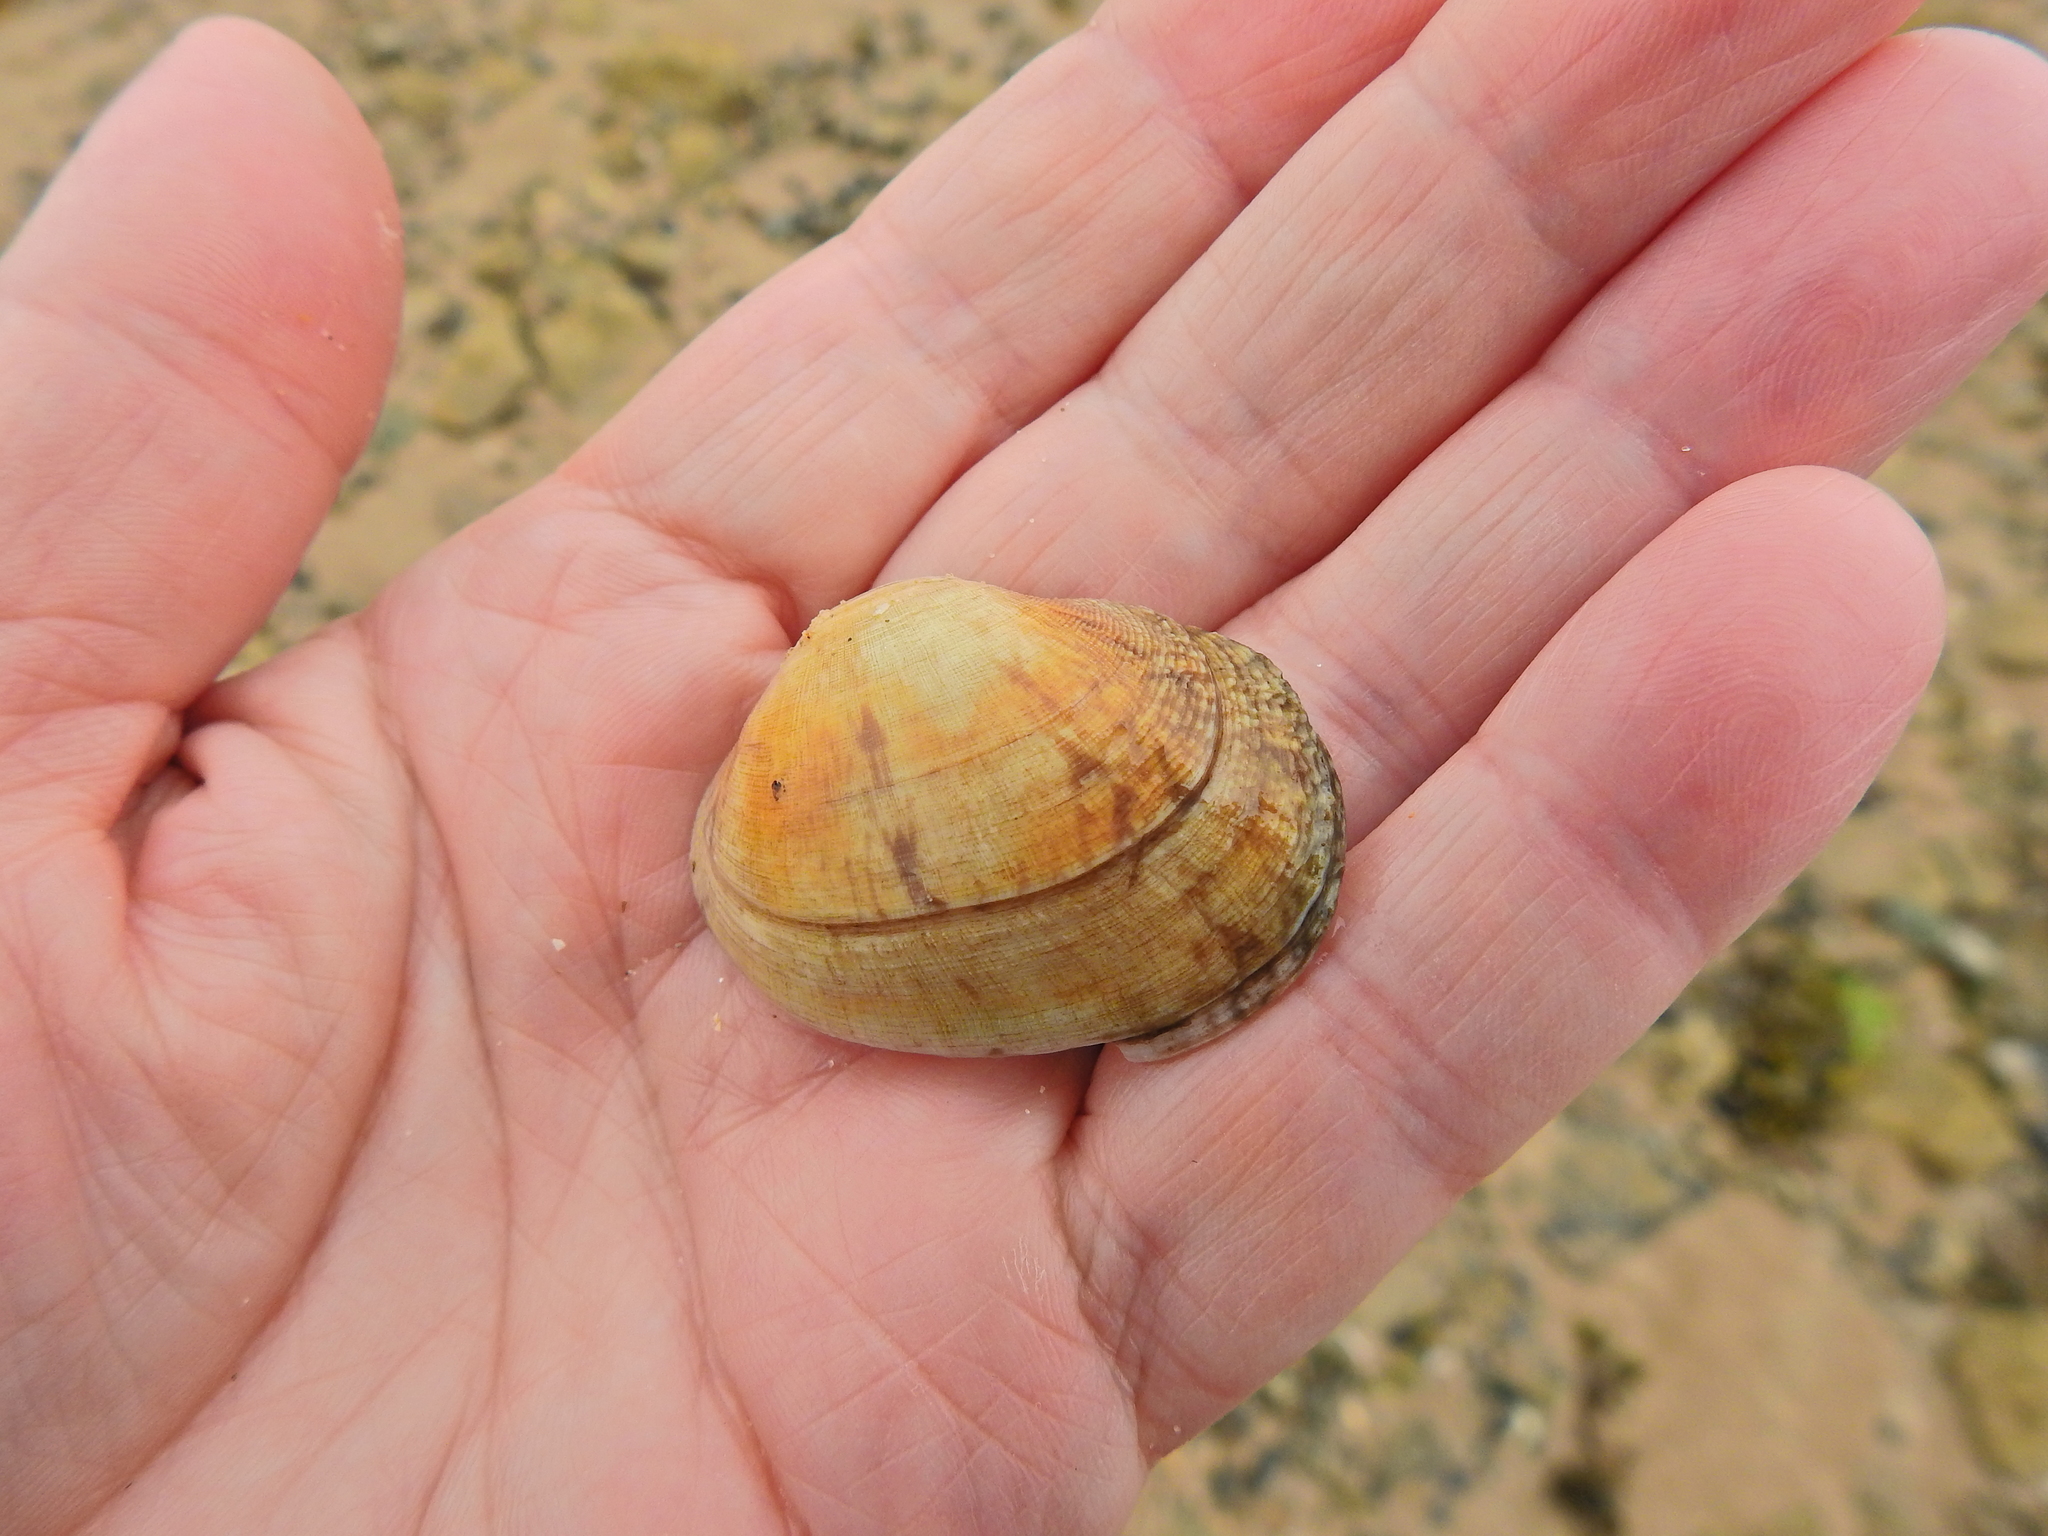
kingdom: Animalia
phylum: Mollusca
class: Bivalvia
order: Venerida
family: Veneridae
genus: Venerupis
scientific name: Venerupis corrugata
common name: Pullet carpet shell
